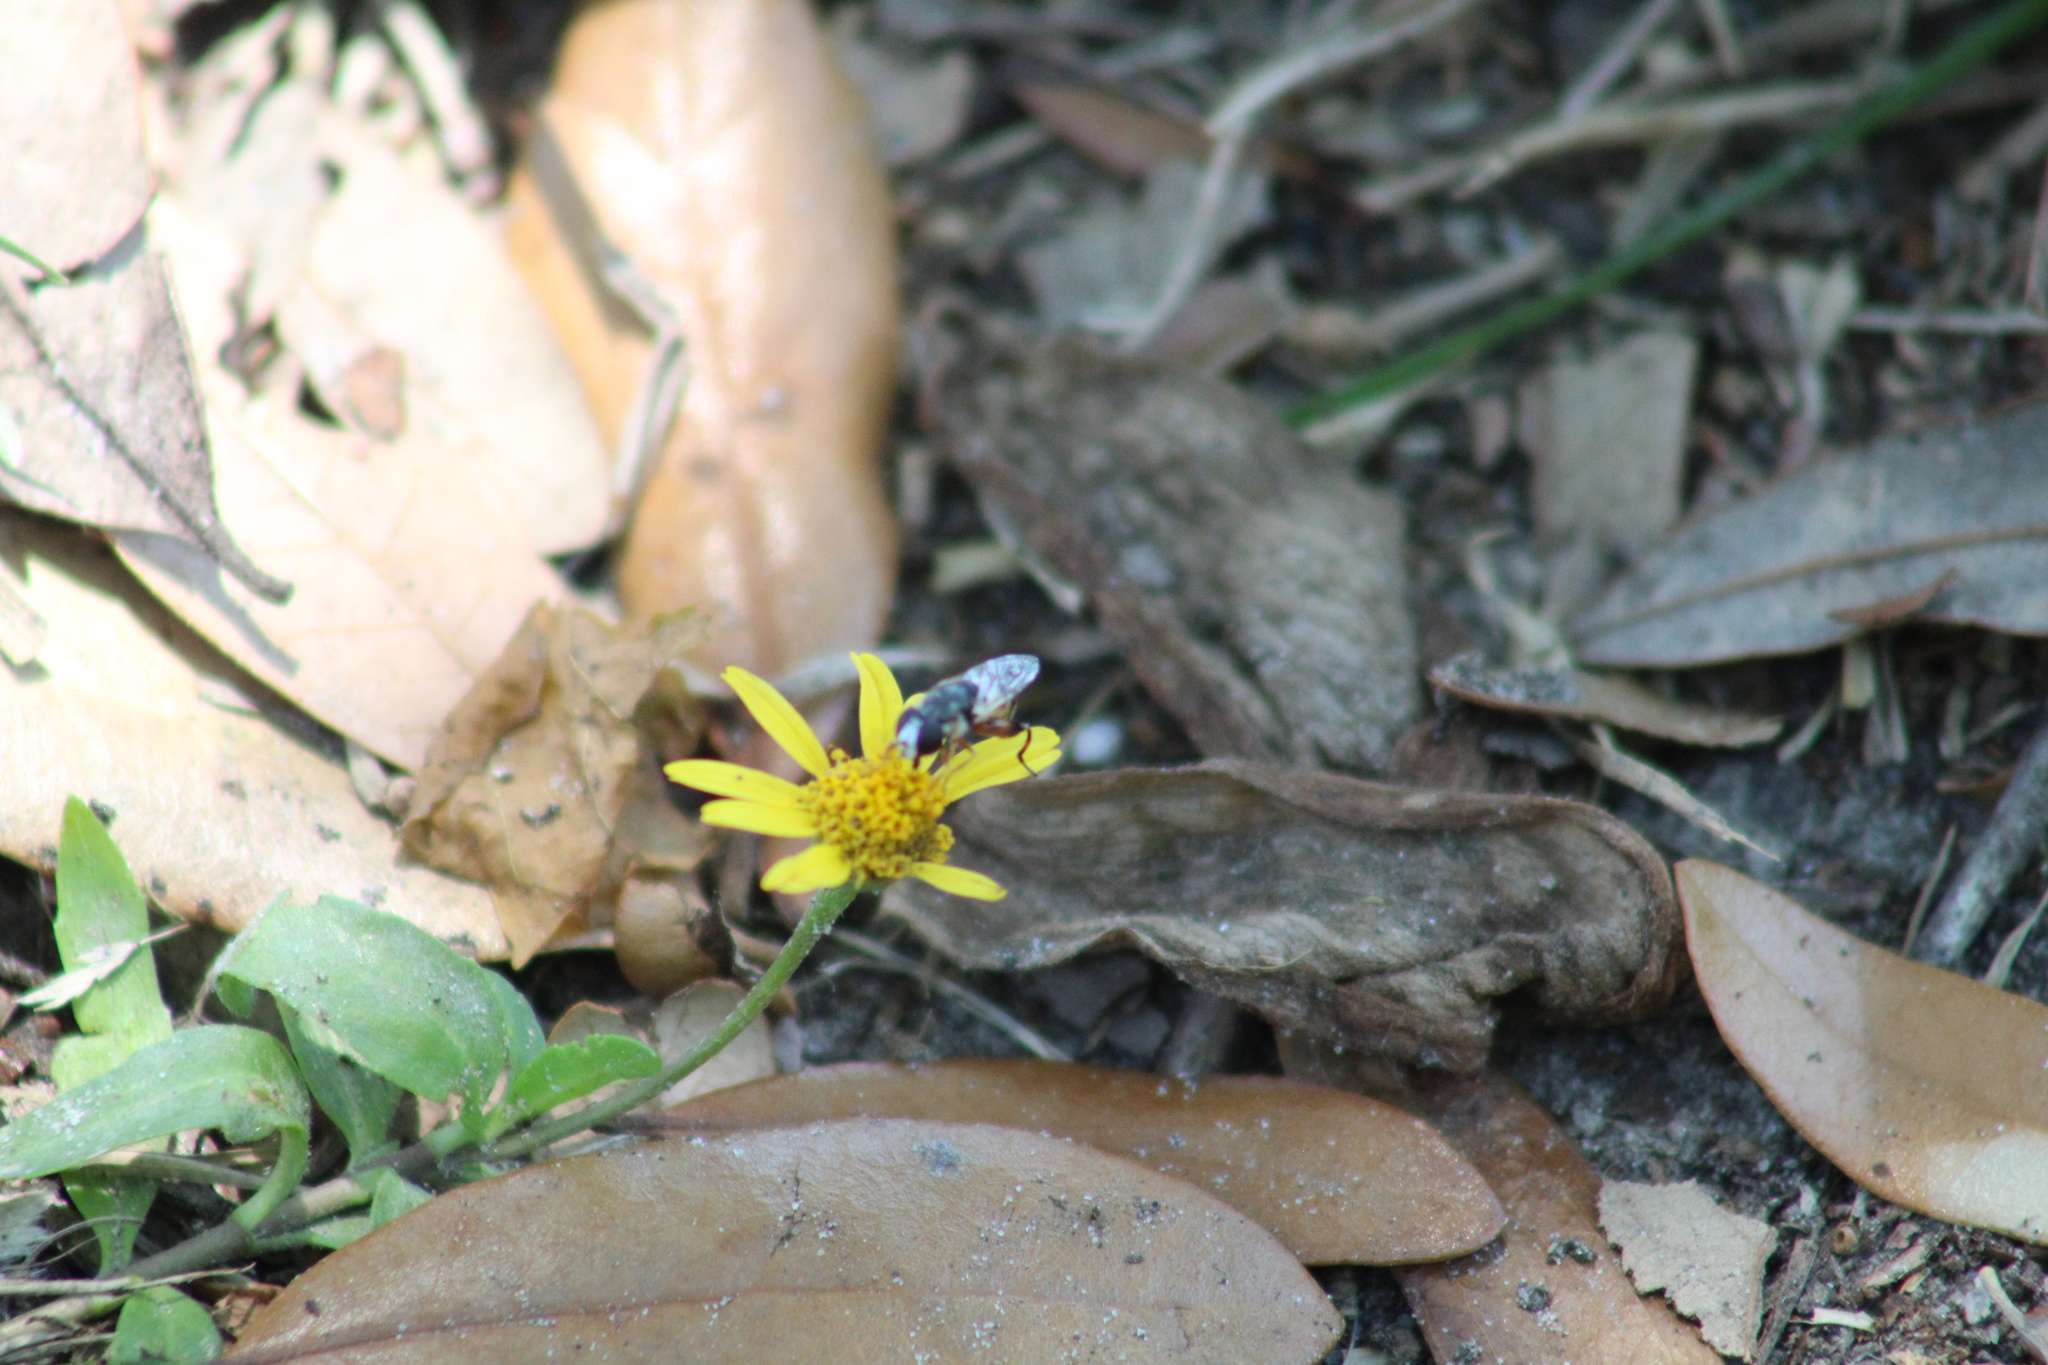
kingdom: Animalia
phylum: Arthropoda
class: Insecta
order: Diptera
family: Syrphidae
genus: Syritta
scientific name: Syritta flaviventris
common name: Syrphid fly
